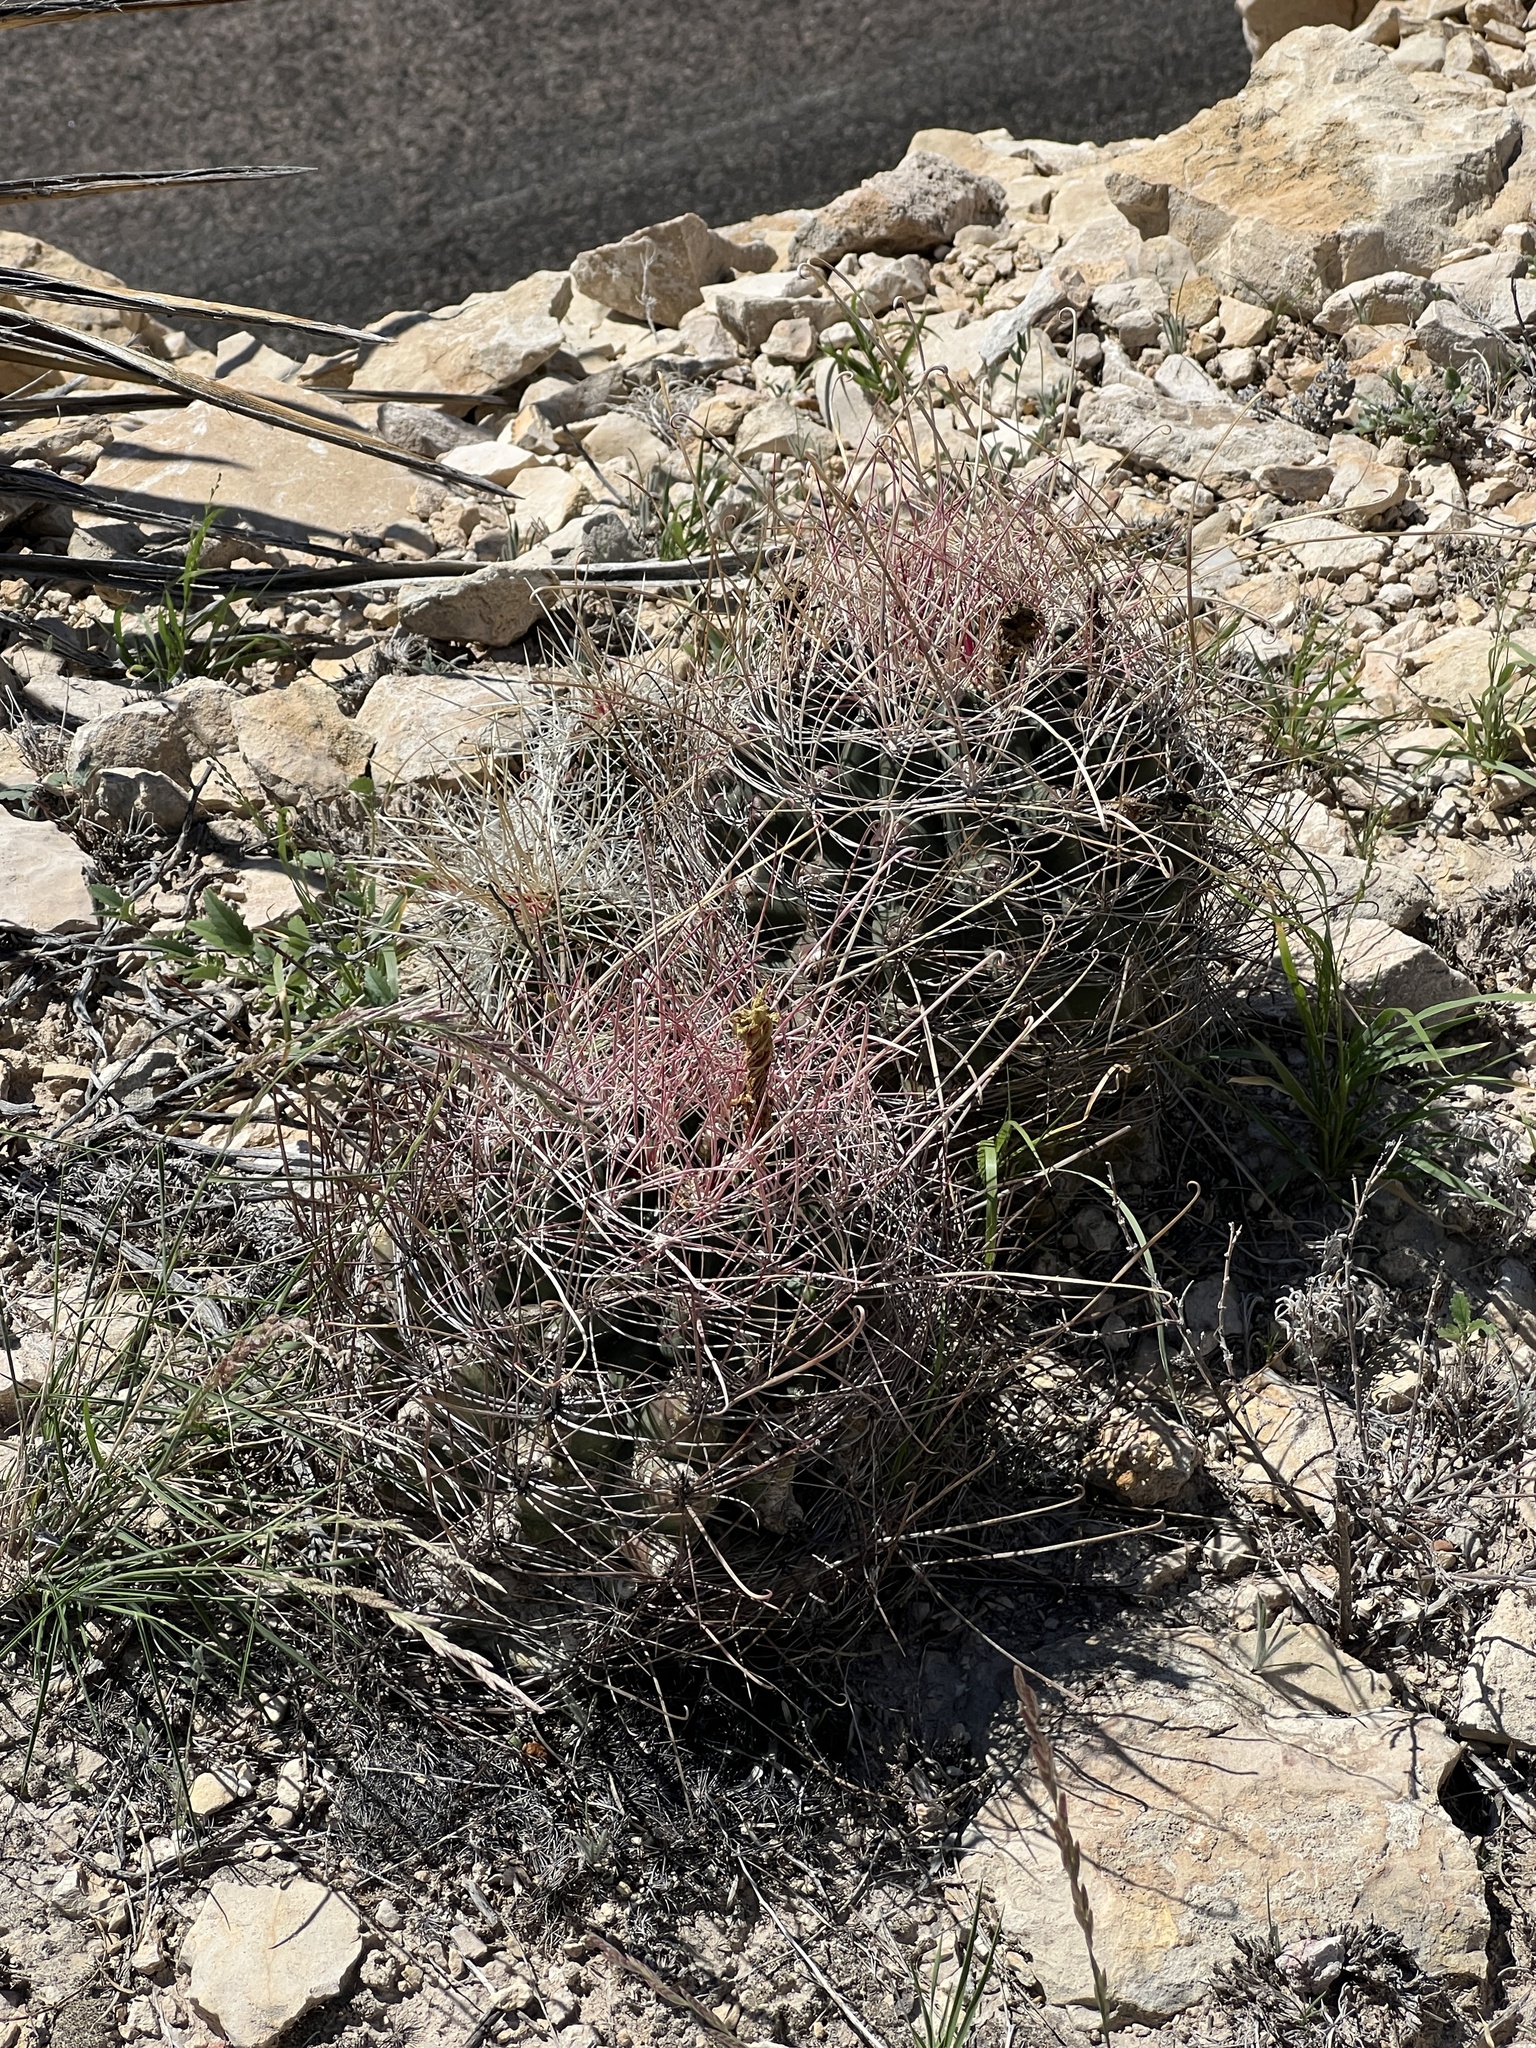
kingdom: Plantae
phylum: Tracheophyta
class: Magnoliopsida
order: Caryophyllales
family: Cactaceae
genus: Bisnaga
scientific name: Bisnaga hamatacantha
